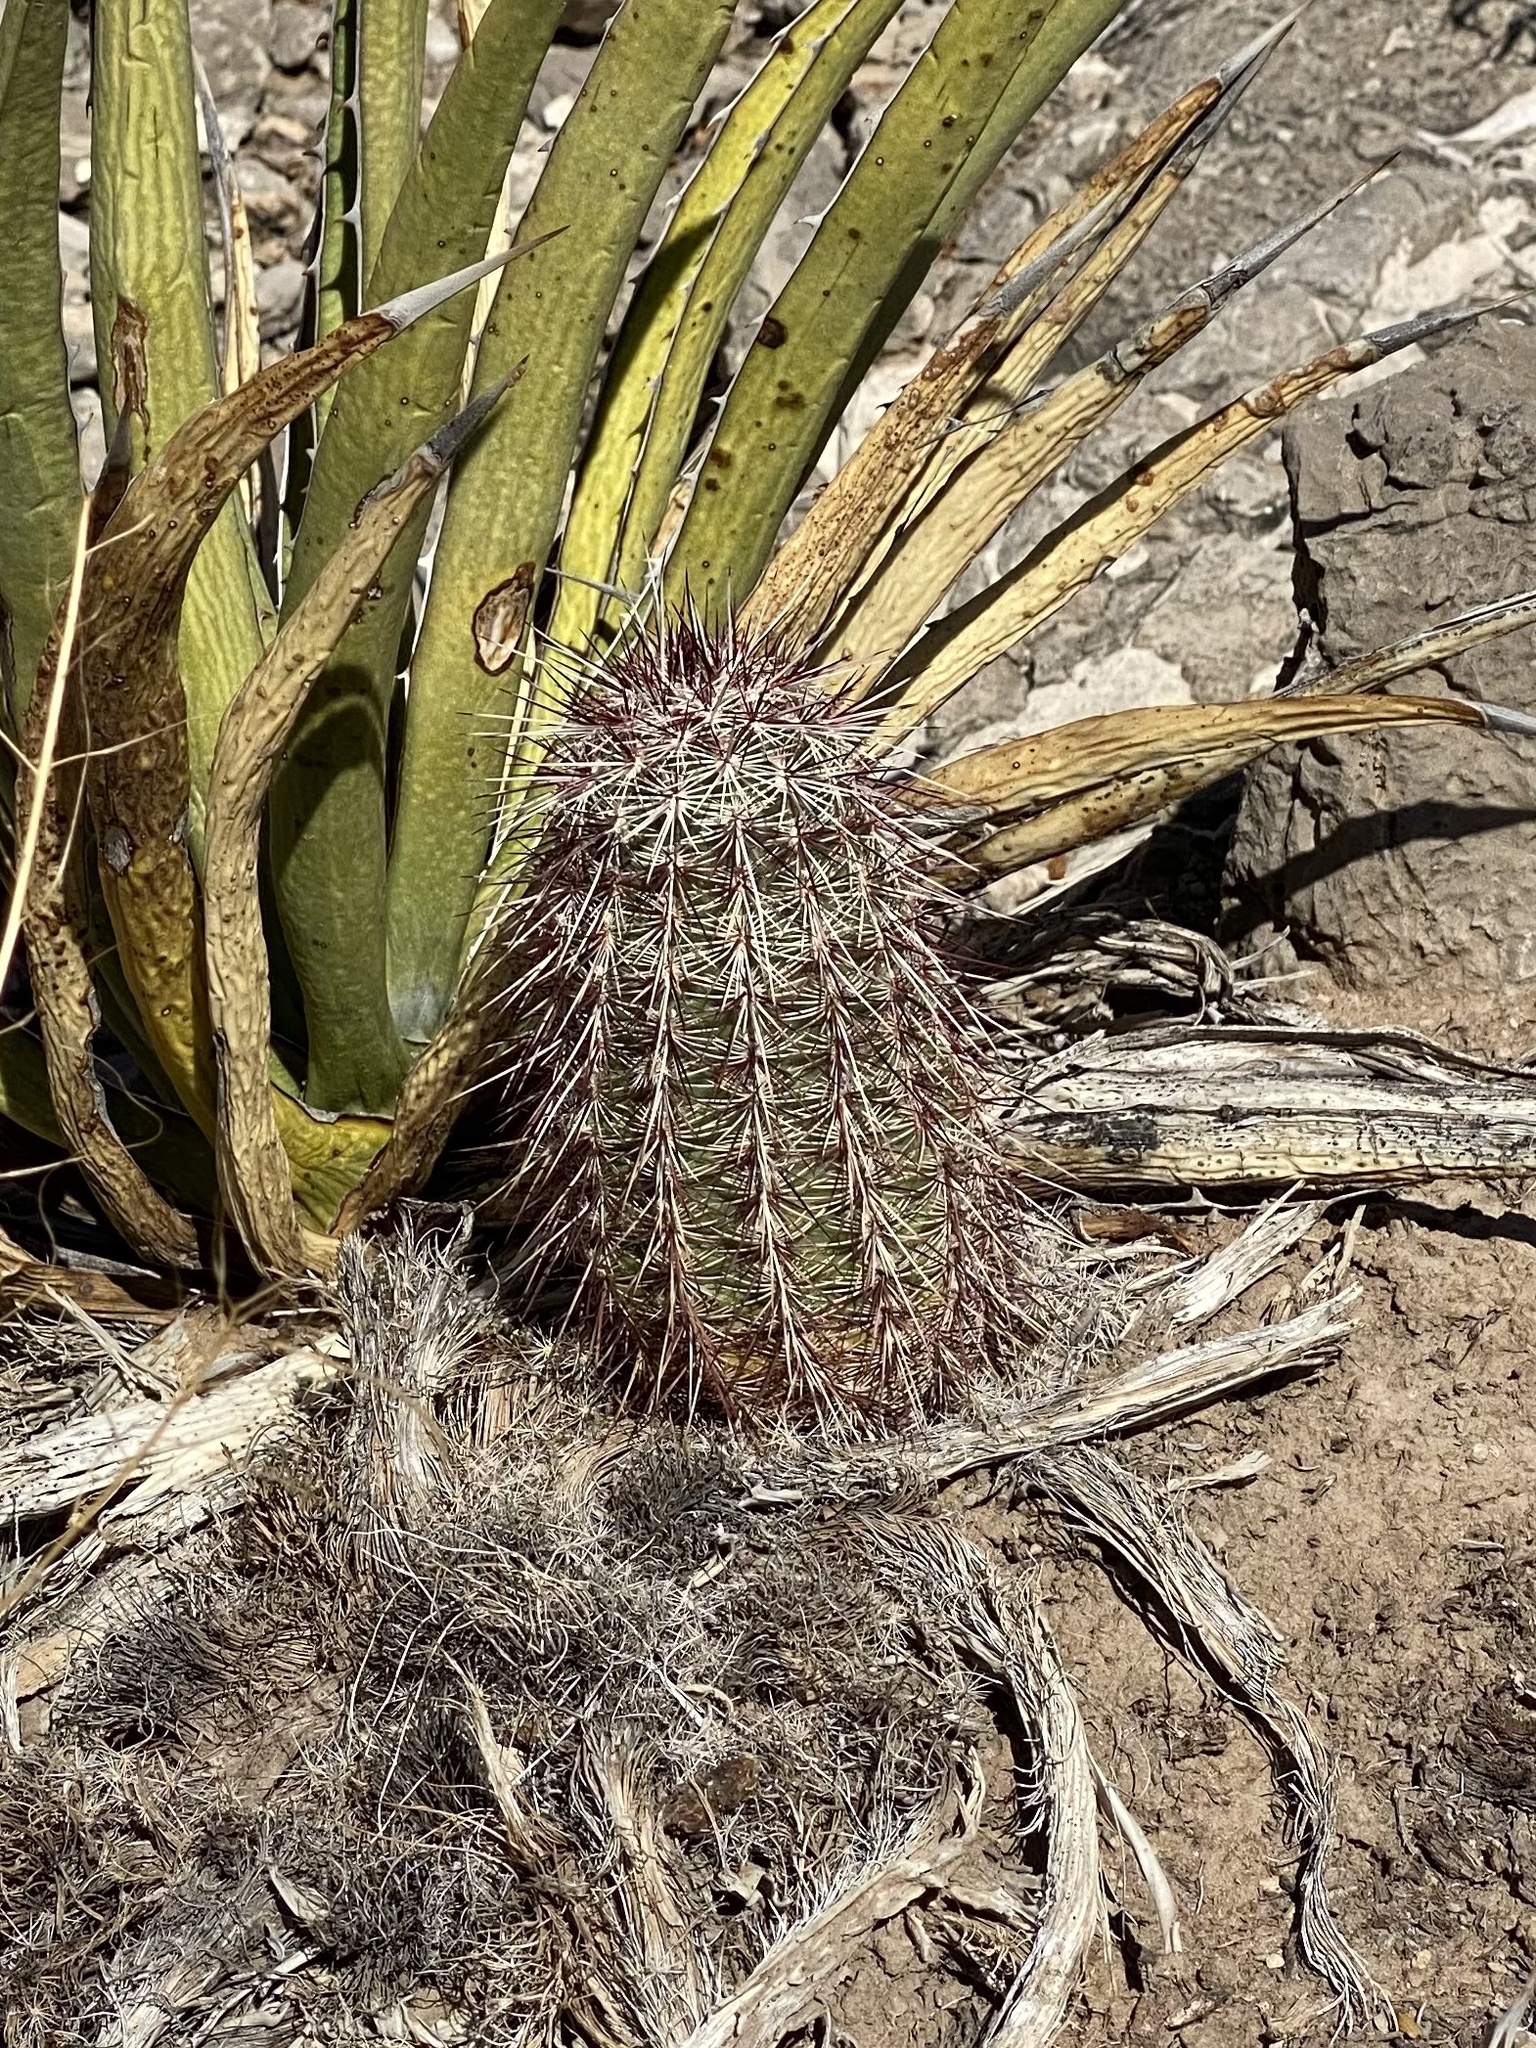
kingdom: Plantae
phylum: Tracheophyta
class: Magnoliopsida
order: Caryophyllales
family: Cactaceae
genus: Echinocereus
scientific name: Echinocereus viridiflorus
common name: Nylon hedgehog cactus
